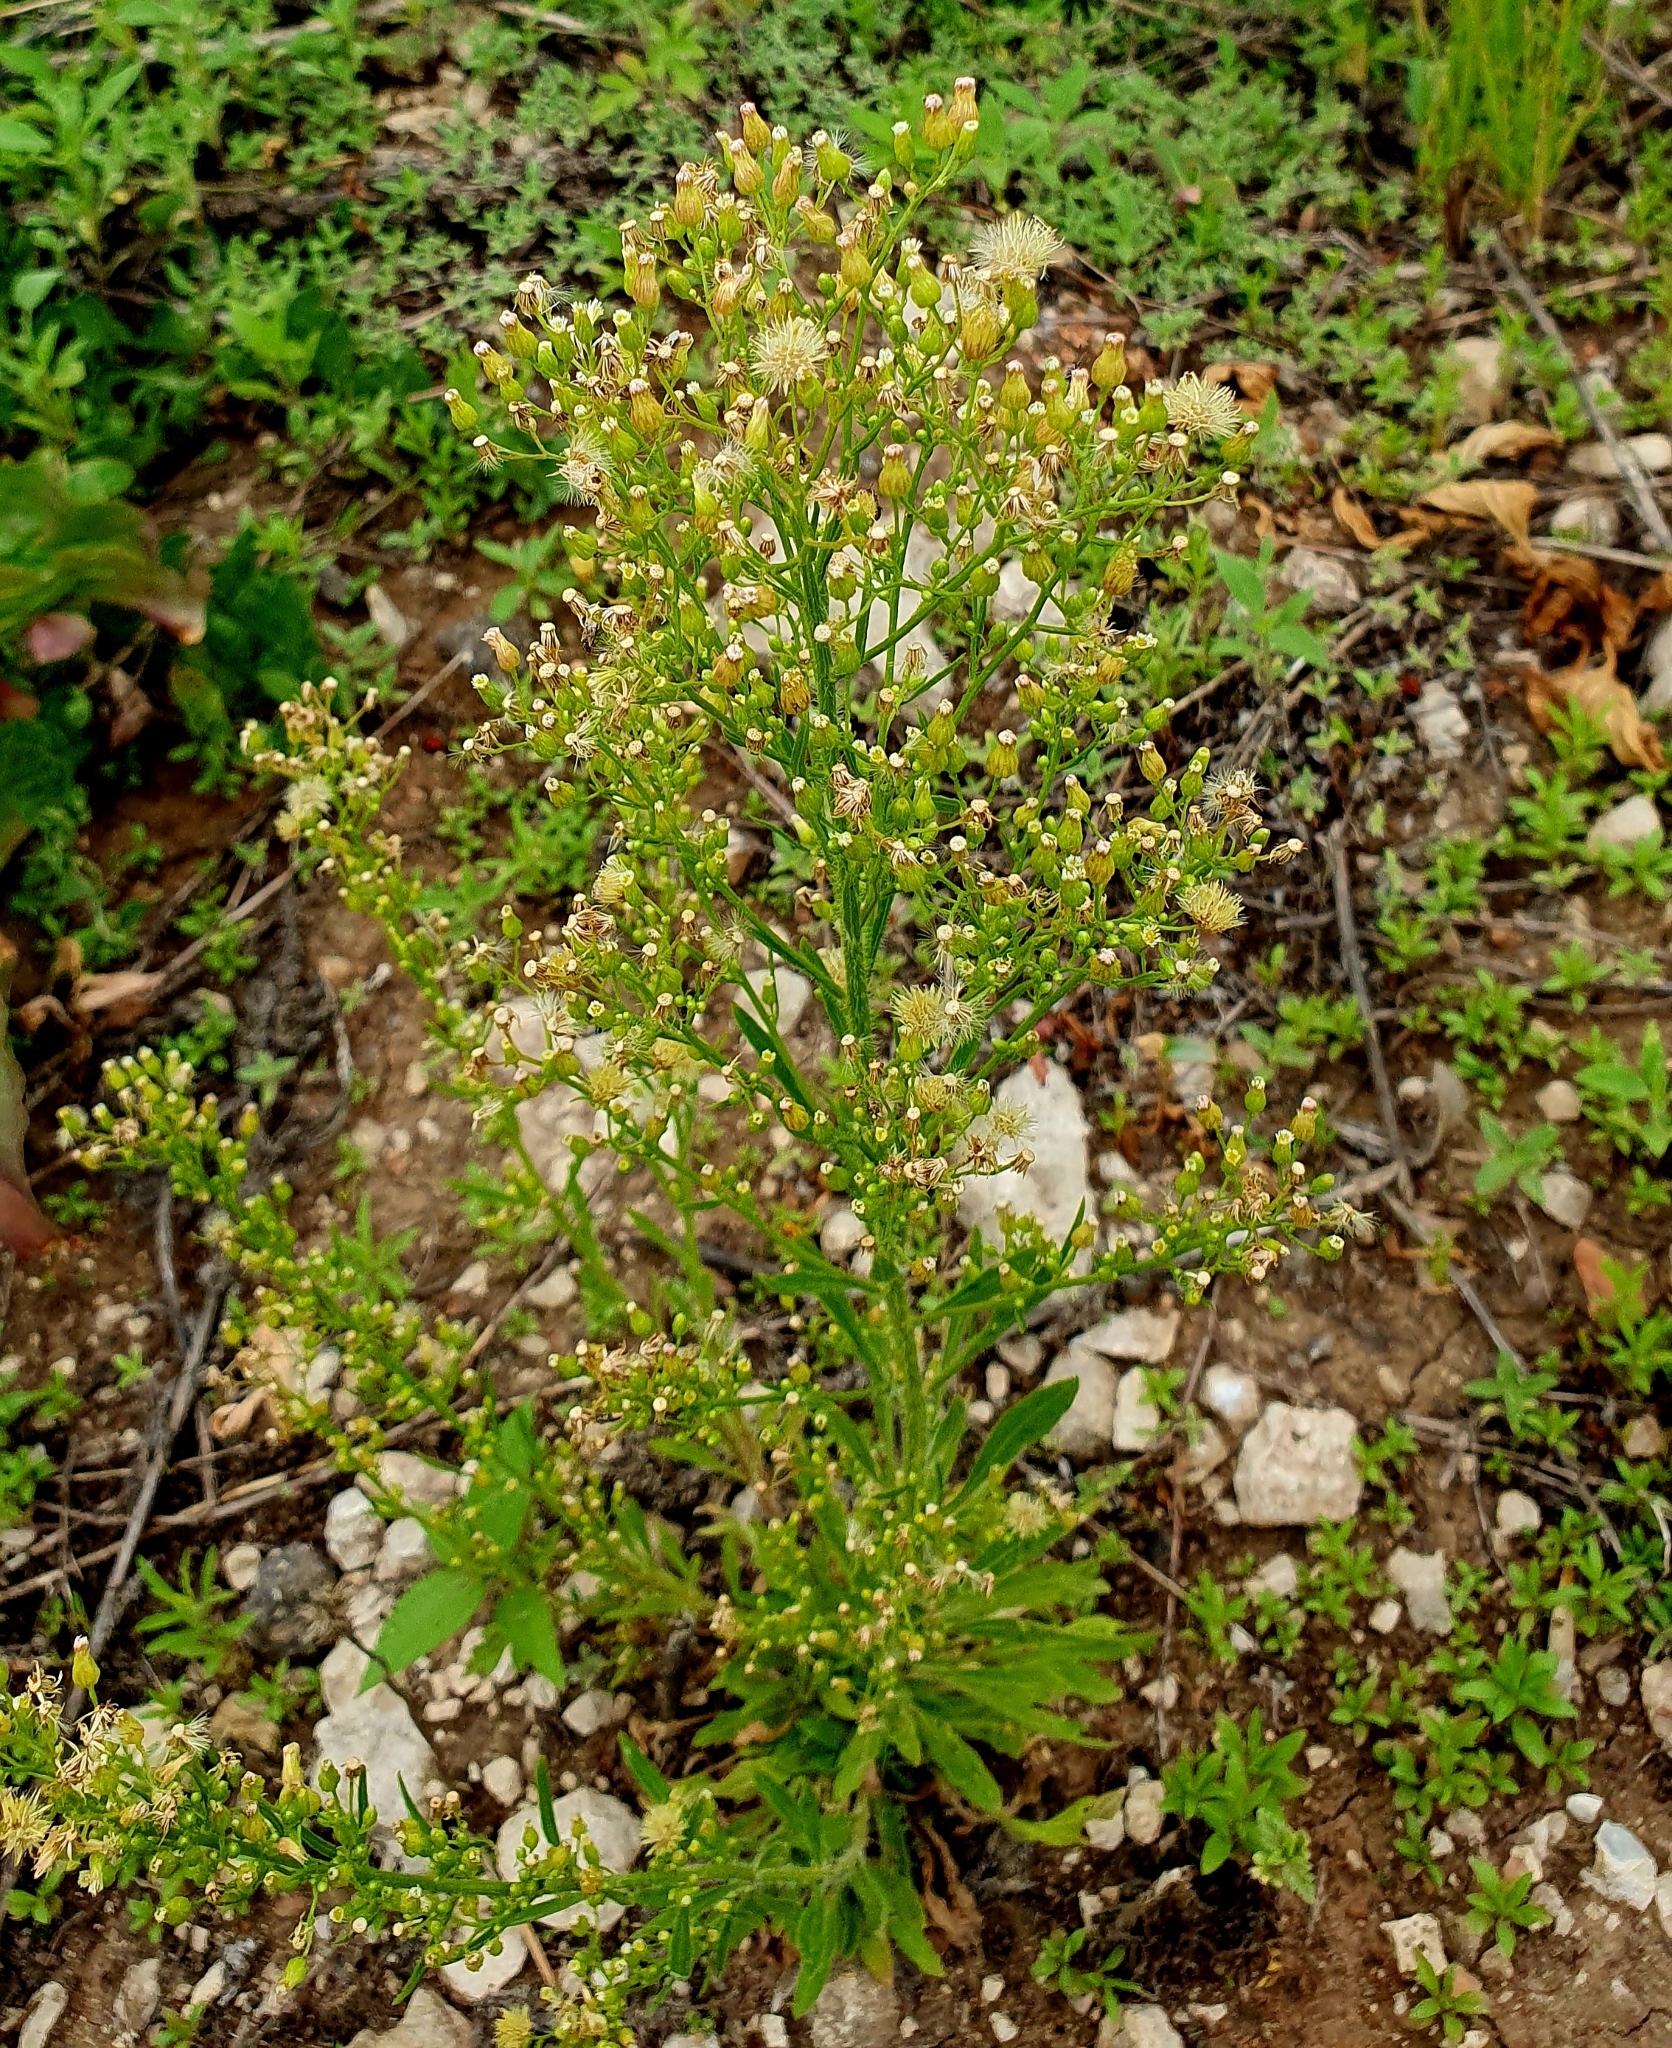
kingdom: Plantae
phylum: Tracheophyta
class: Magnoliopsida
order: Asterales
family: Asteraceae
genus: Erigeron
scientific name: Erigeron canadensis
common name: Canadian fleabane
